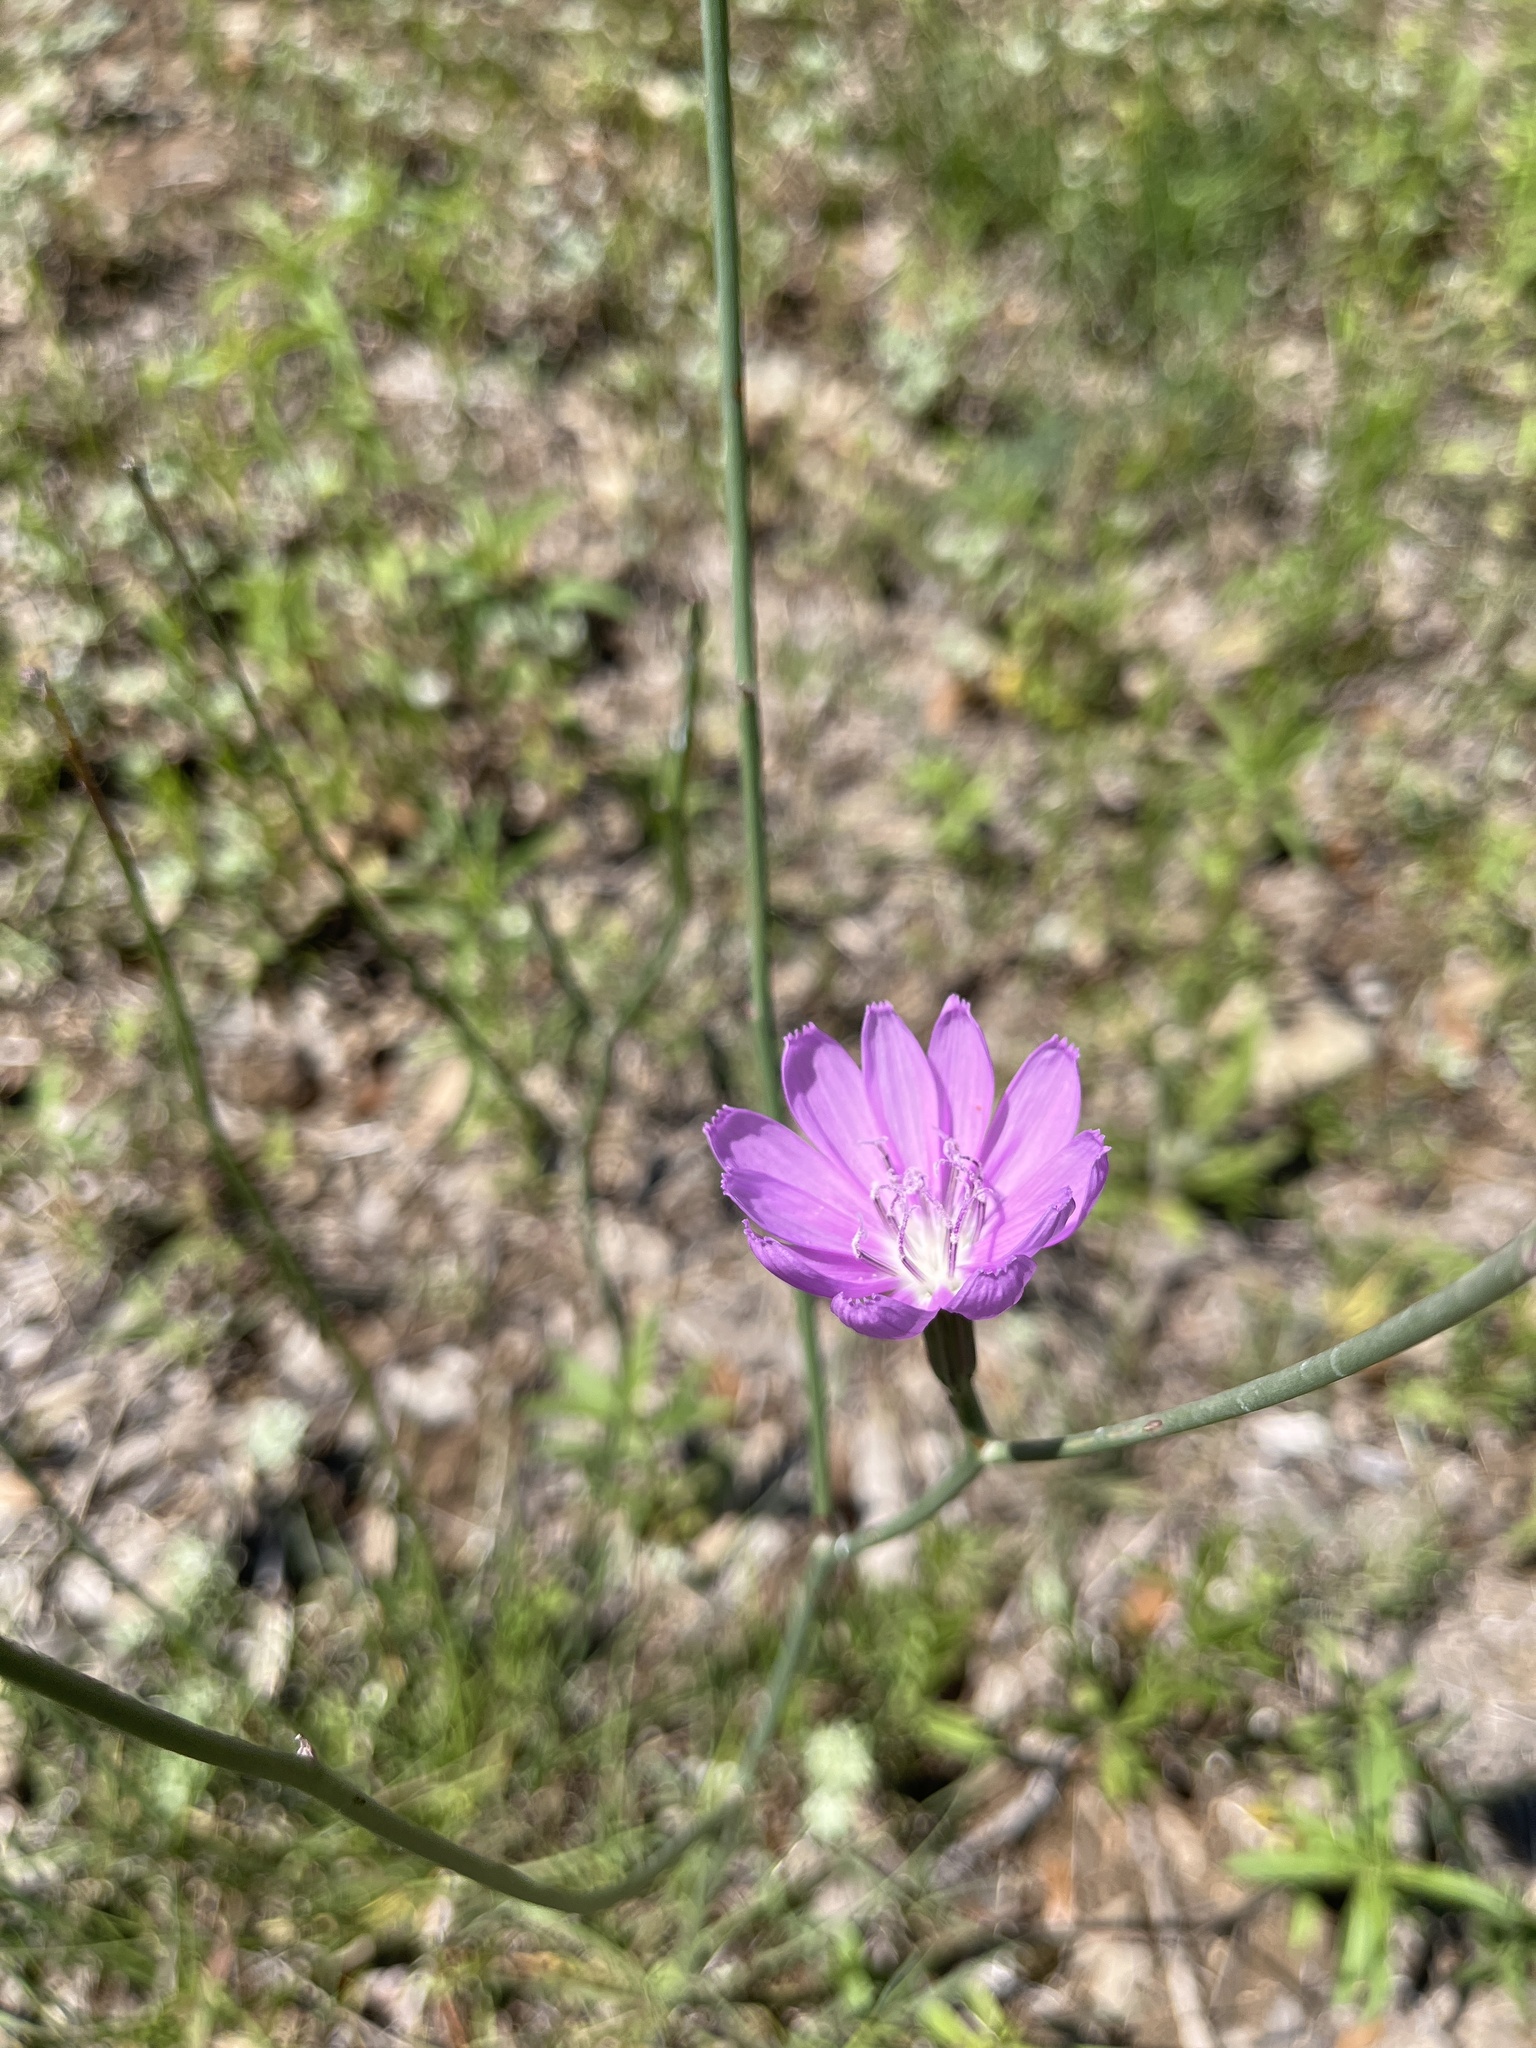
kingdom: Plantae
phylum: Tracheophyta
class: Magnoliopsida
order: Asterales
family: Asteraceae
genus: Lygodesmia
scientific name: Lygodesmia texana
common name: Texas skeleton-plant
